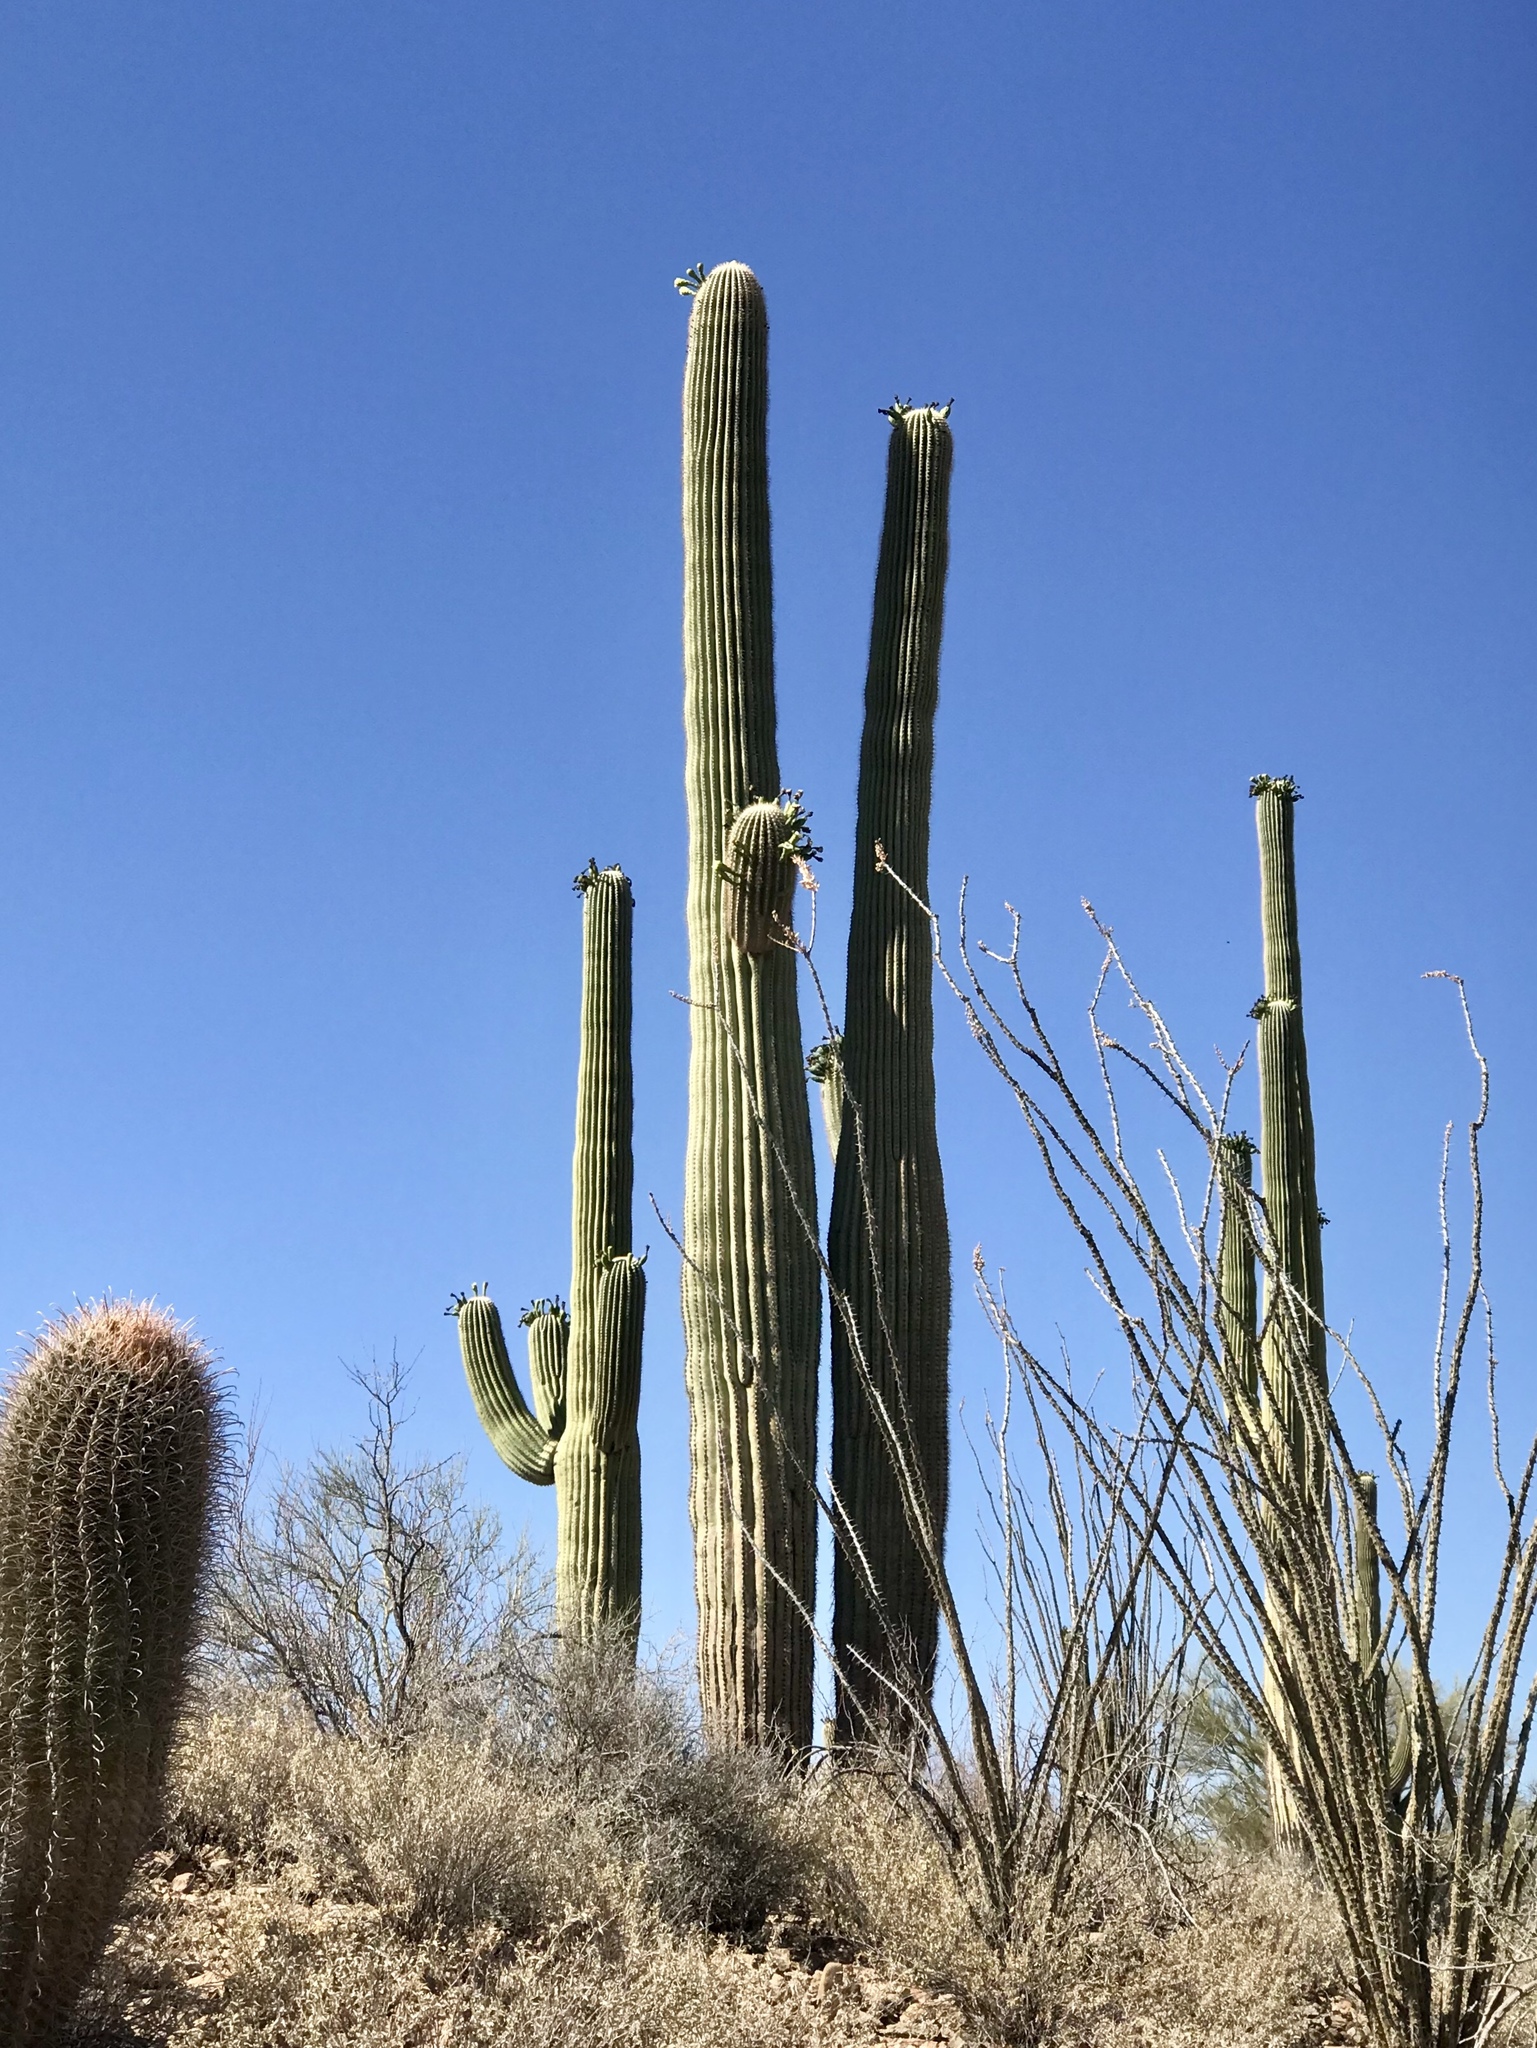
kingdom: Plantae
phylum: Tracheophyta
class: Magnoliopsida
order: Caryophyllales
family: Cactaceae
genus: Carnegiea
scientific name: Carnegiea gigantea
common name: Saguaro
